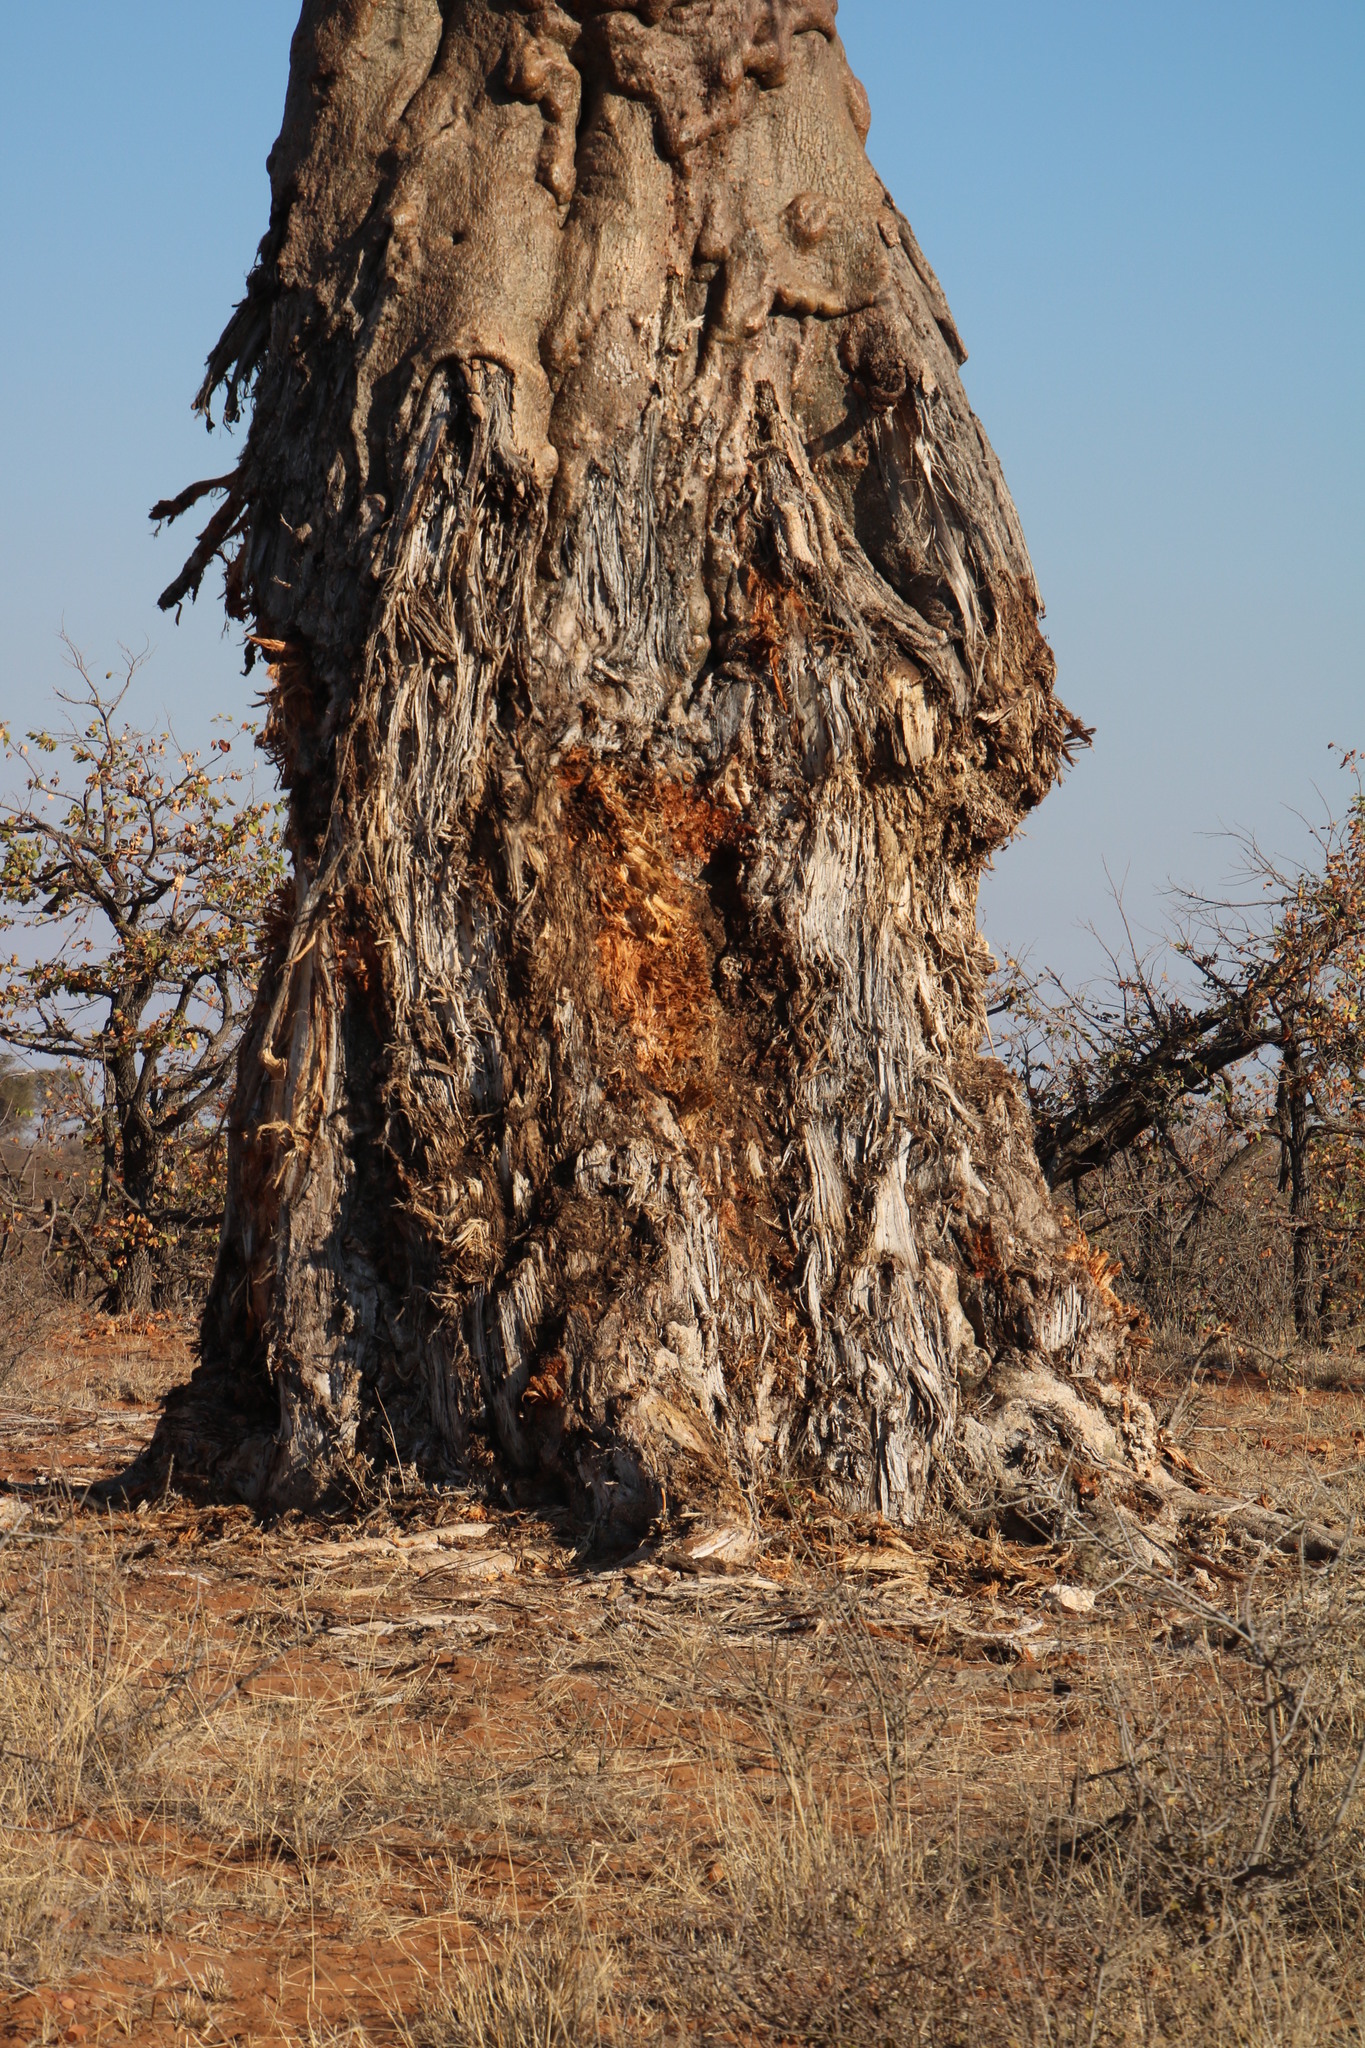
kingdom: Animalia
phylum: Chordata
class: Mammalia
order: Proboscidea
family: Elephantidae
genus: Loxodonta
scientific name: Loxodonta africana
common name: African elephant
